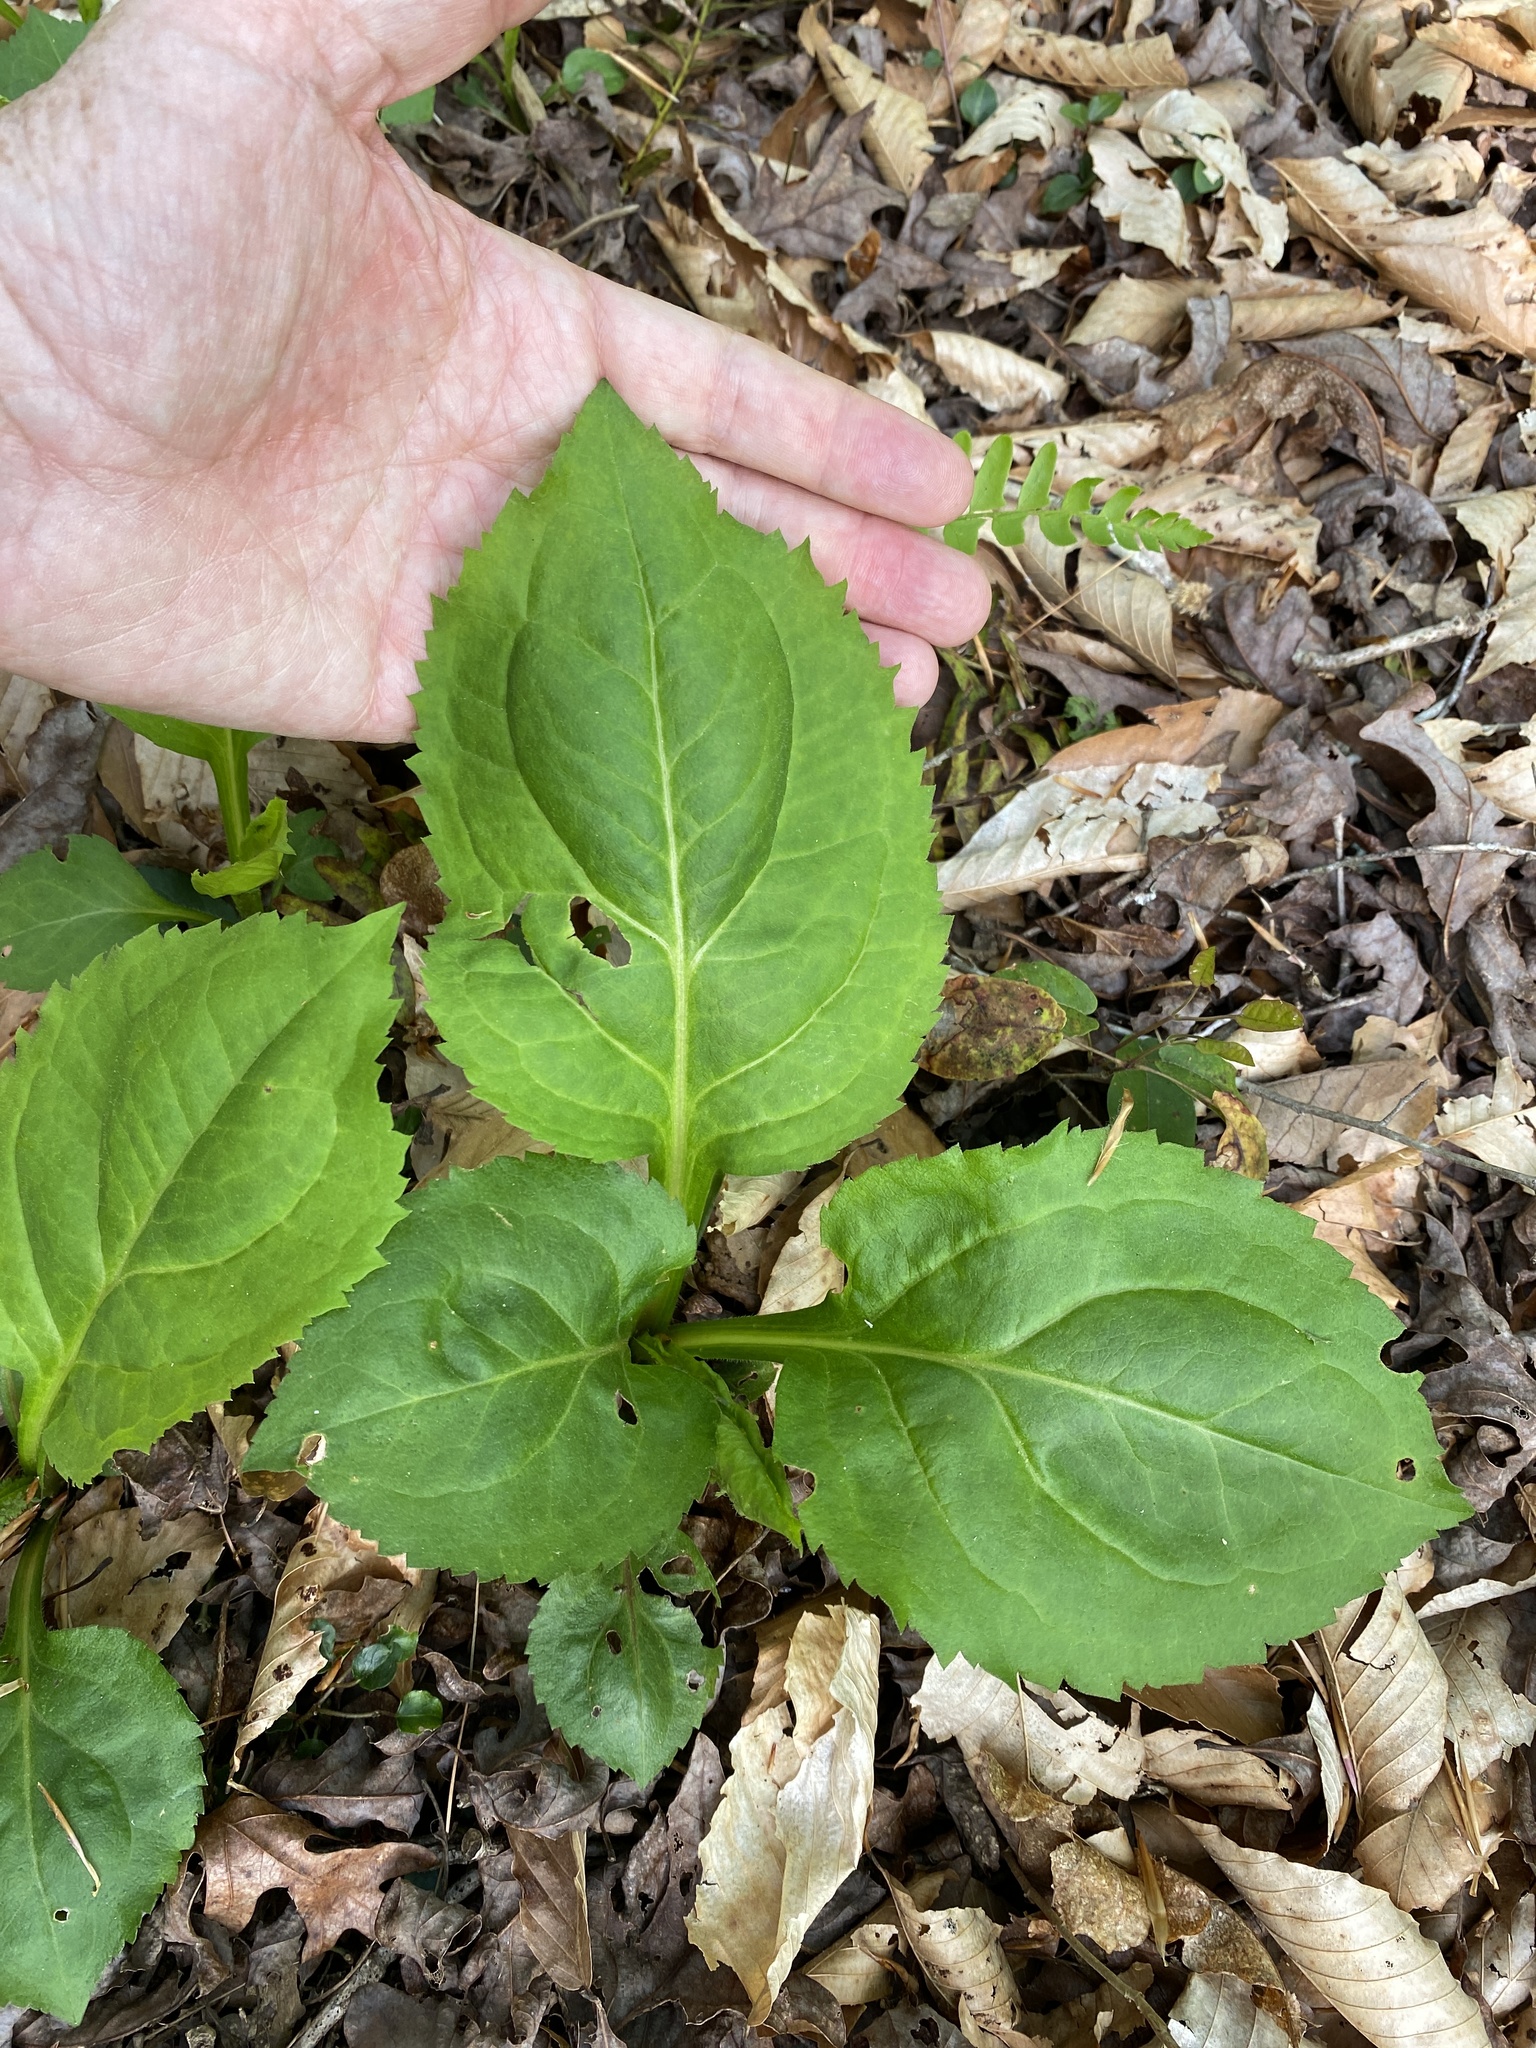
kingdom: Plantae
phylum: Tracheophyta
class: Magnoliopsida
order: Asterales
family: Asteraceae
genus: Solidago
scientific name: Solidago faucibus
